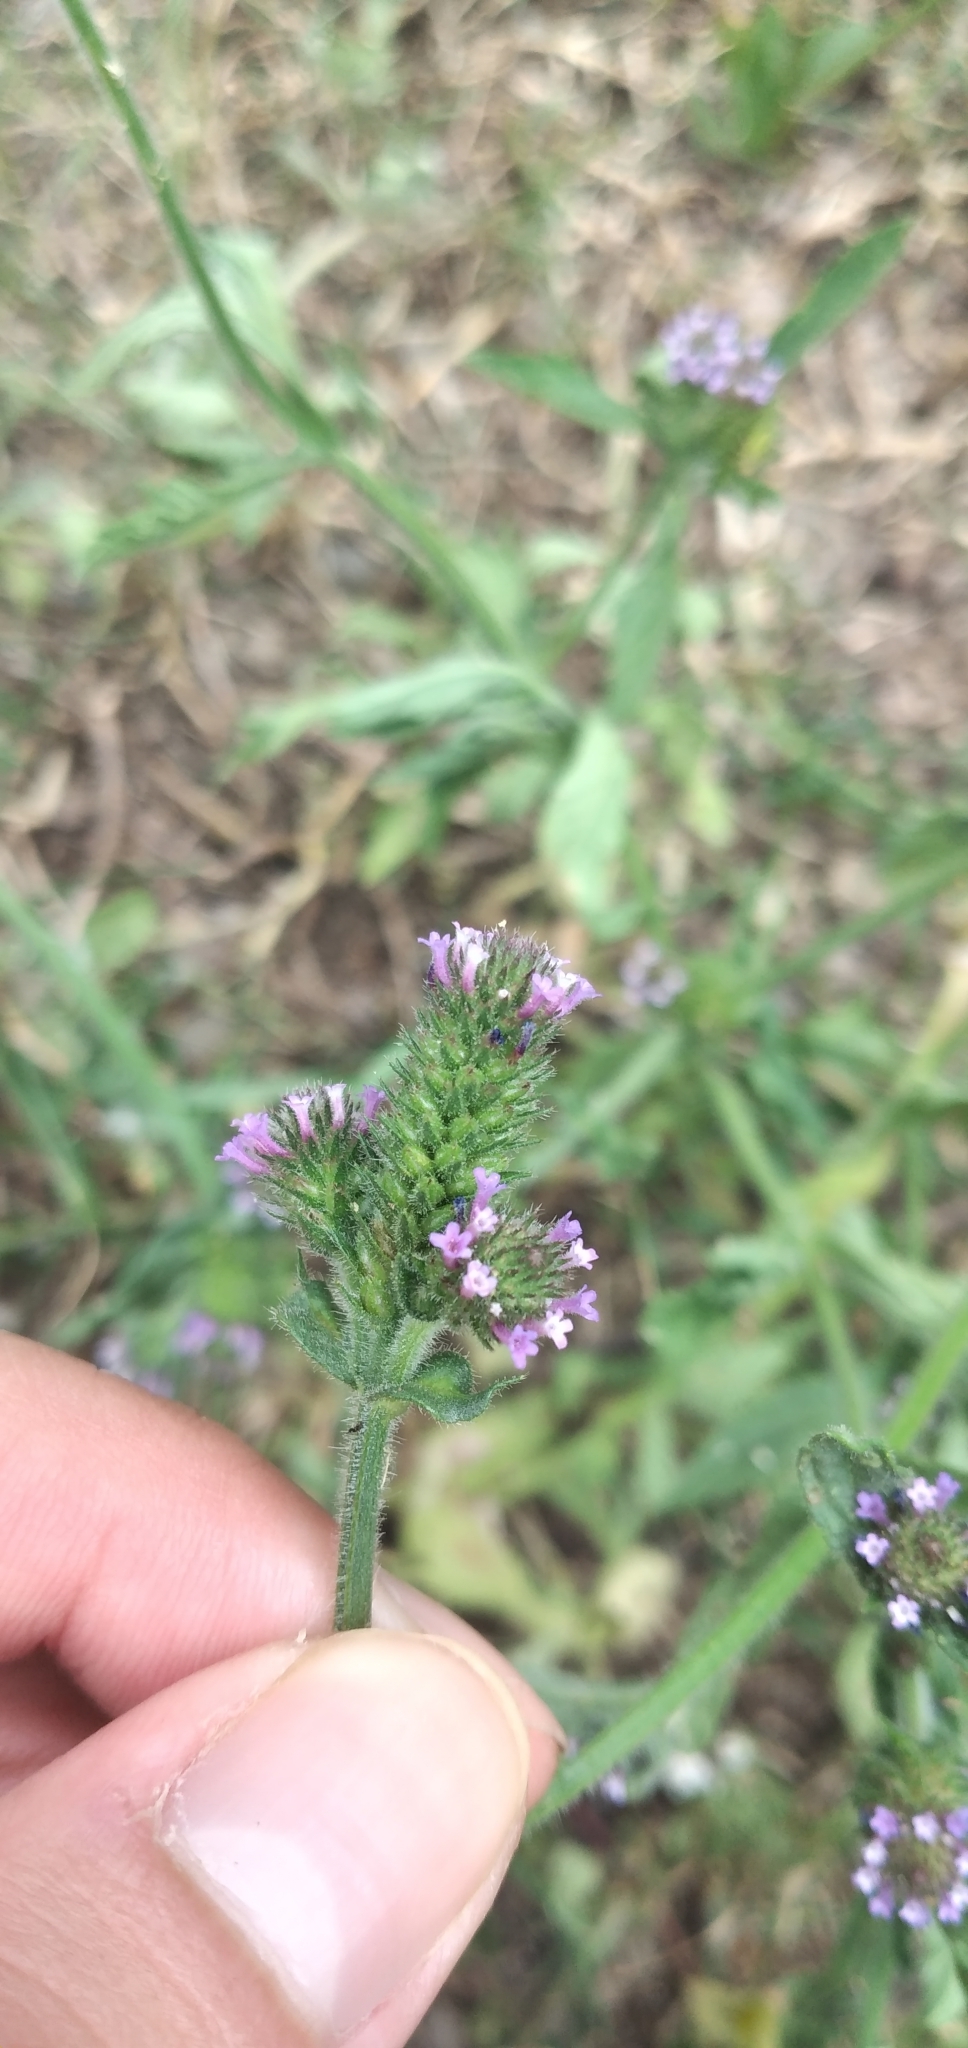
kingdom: Plantae
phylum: Tracheophyta
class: Magnoliopsida
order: Lamiales
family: Verbenaceae
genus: Verbena
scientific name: Verbena hispida
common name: Hairy vervain
